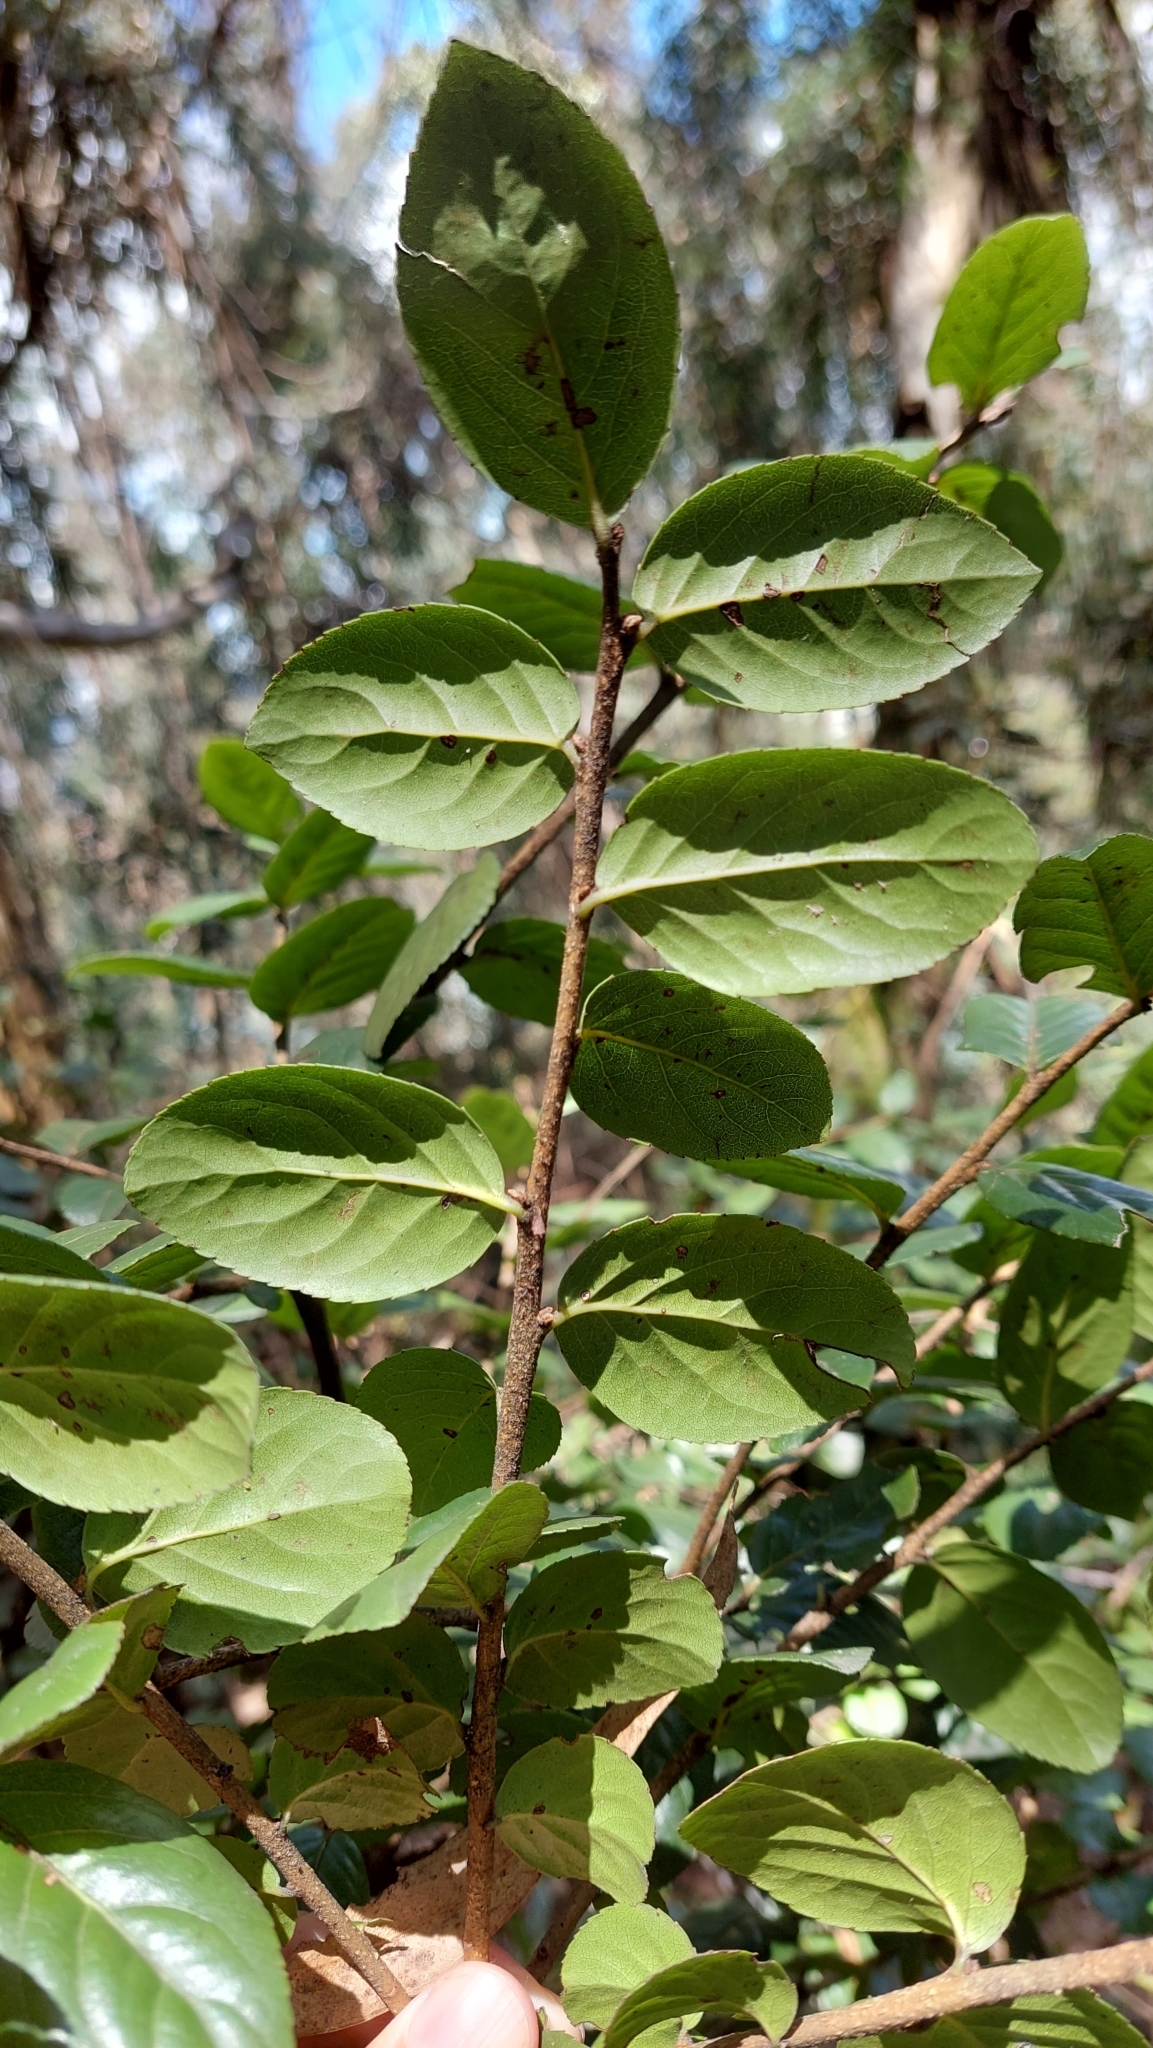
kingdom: Plantae
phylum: Tracheophyta
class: Magnoliopsida
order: Malpighiales
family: Salicaceae
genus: Xylosma
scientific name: Xylosma spiculifera
